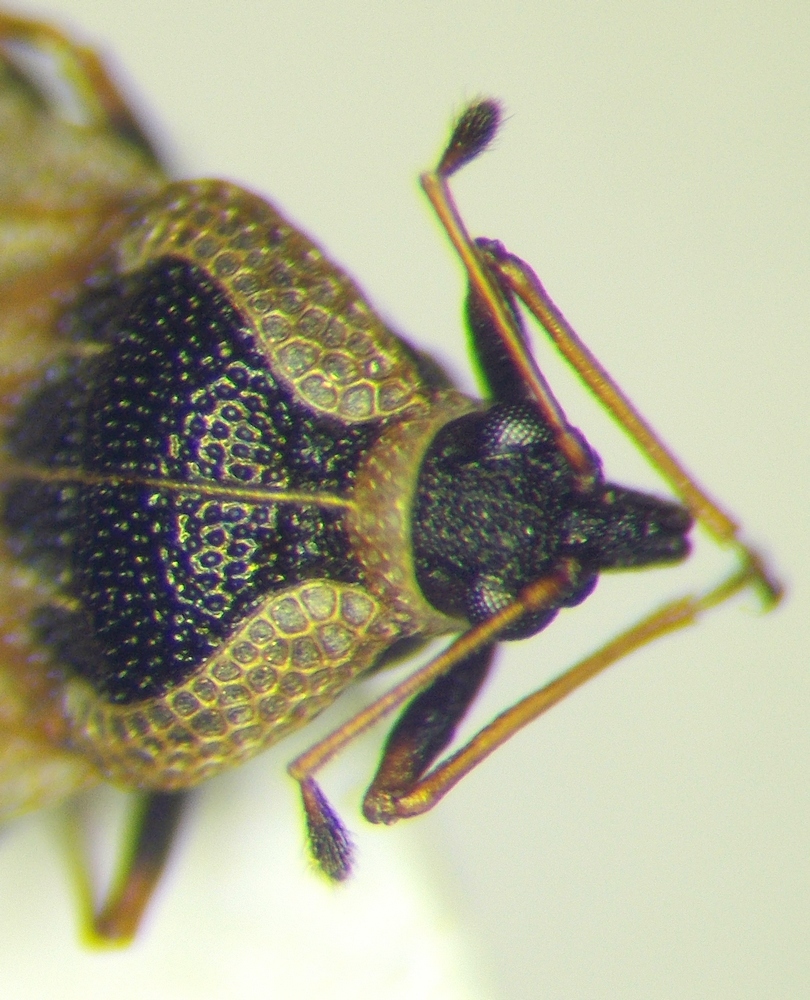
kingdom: Animalia
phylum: Arthropoda
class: Insecta
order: Hemiptera
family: Tingidae
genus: Dictyla
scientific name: Dictyla echii
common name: Lace bug
